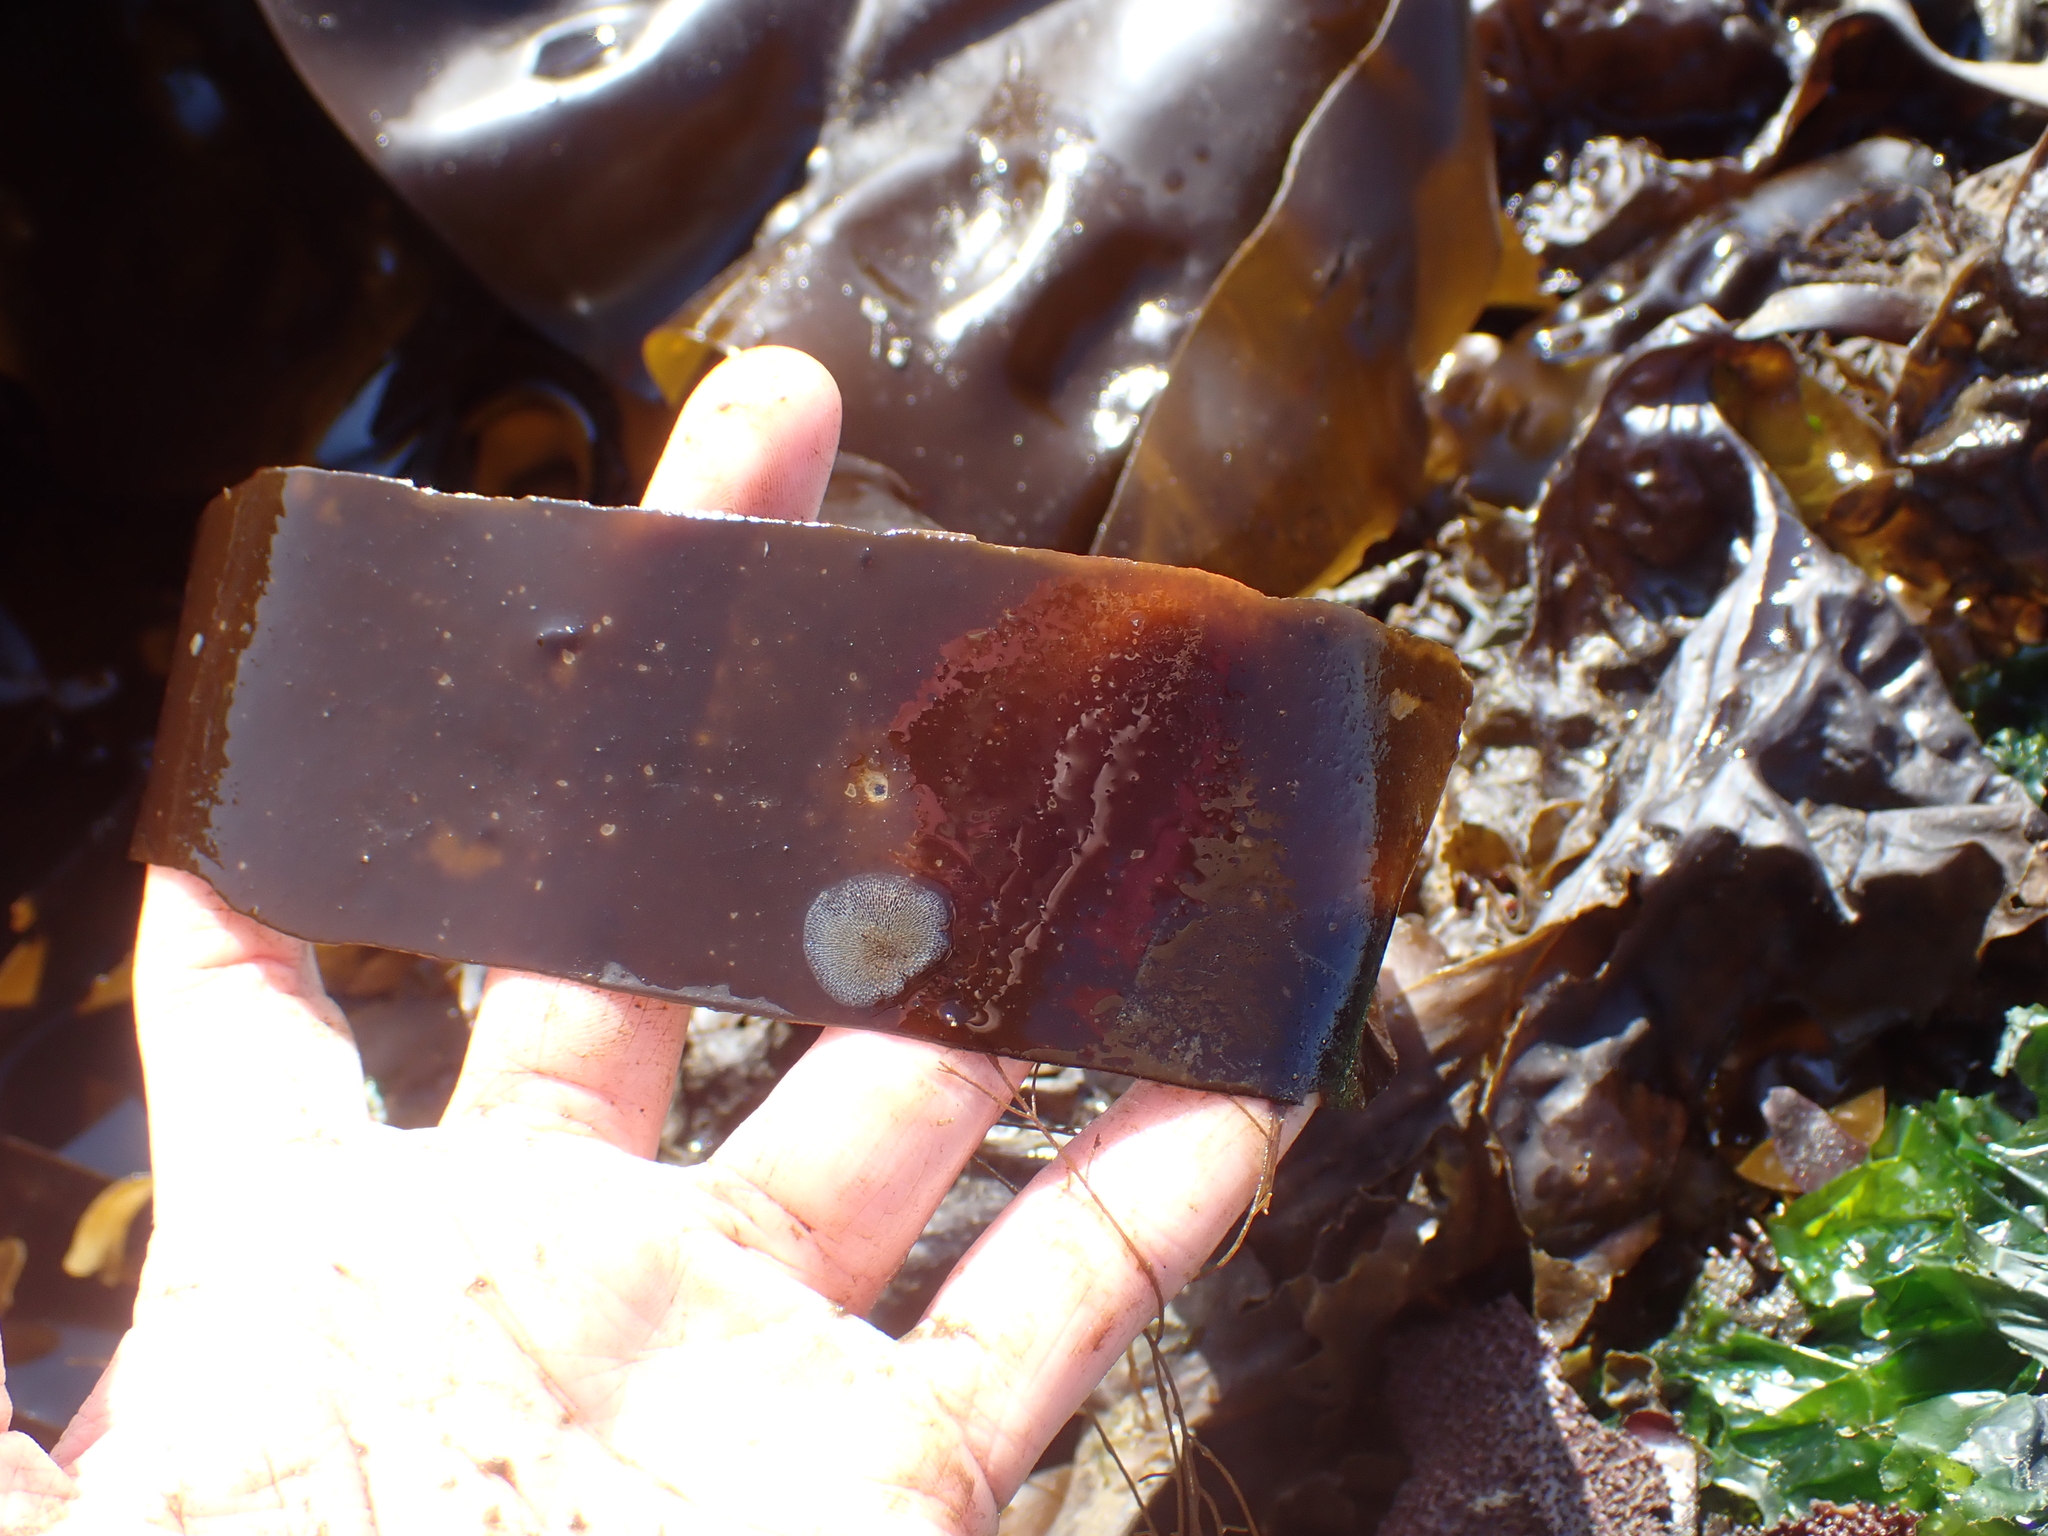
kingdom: Animalia
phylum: Bryozoa
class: Gymnolaemata
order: Cheilostomatida
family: Membraniporidae
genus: Membranipora
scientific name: Membranipora membranacea
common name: Sea mat
